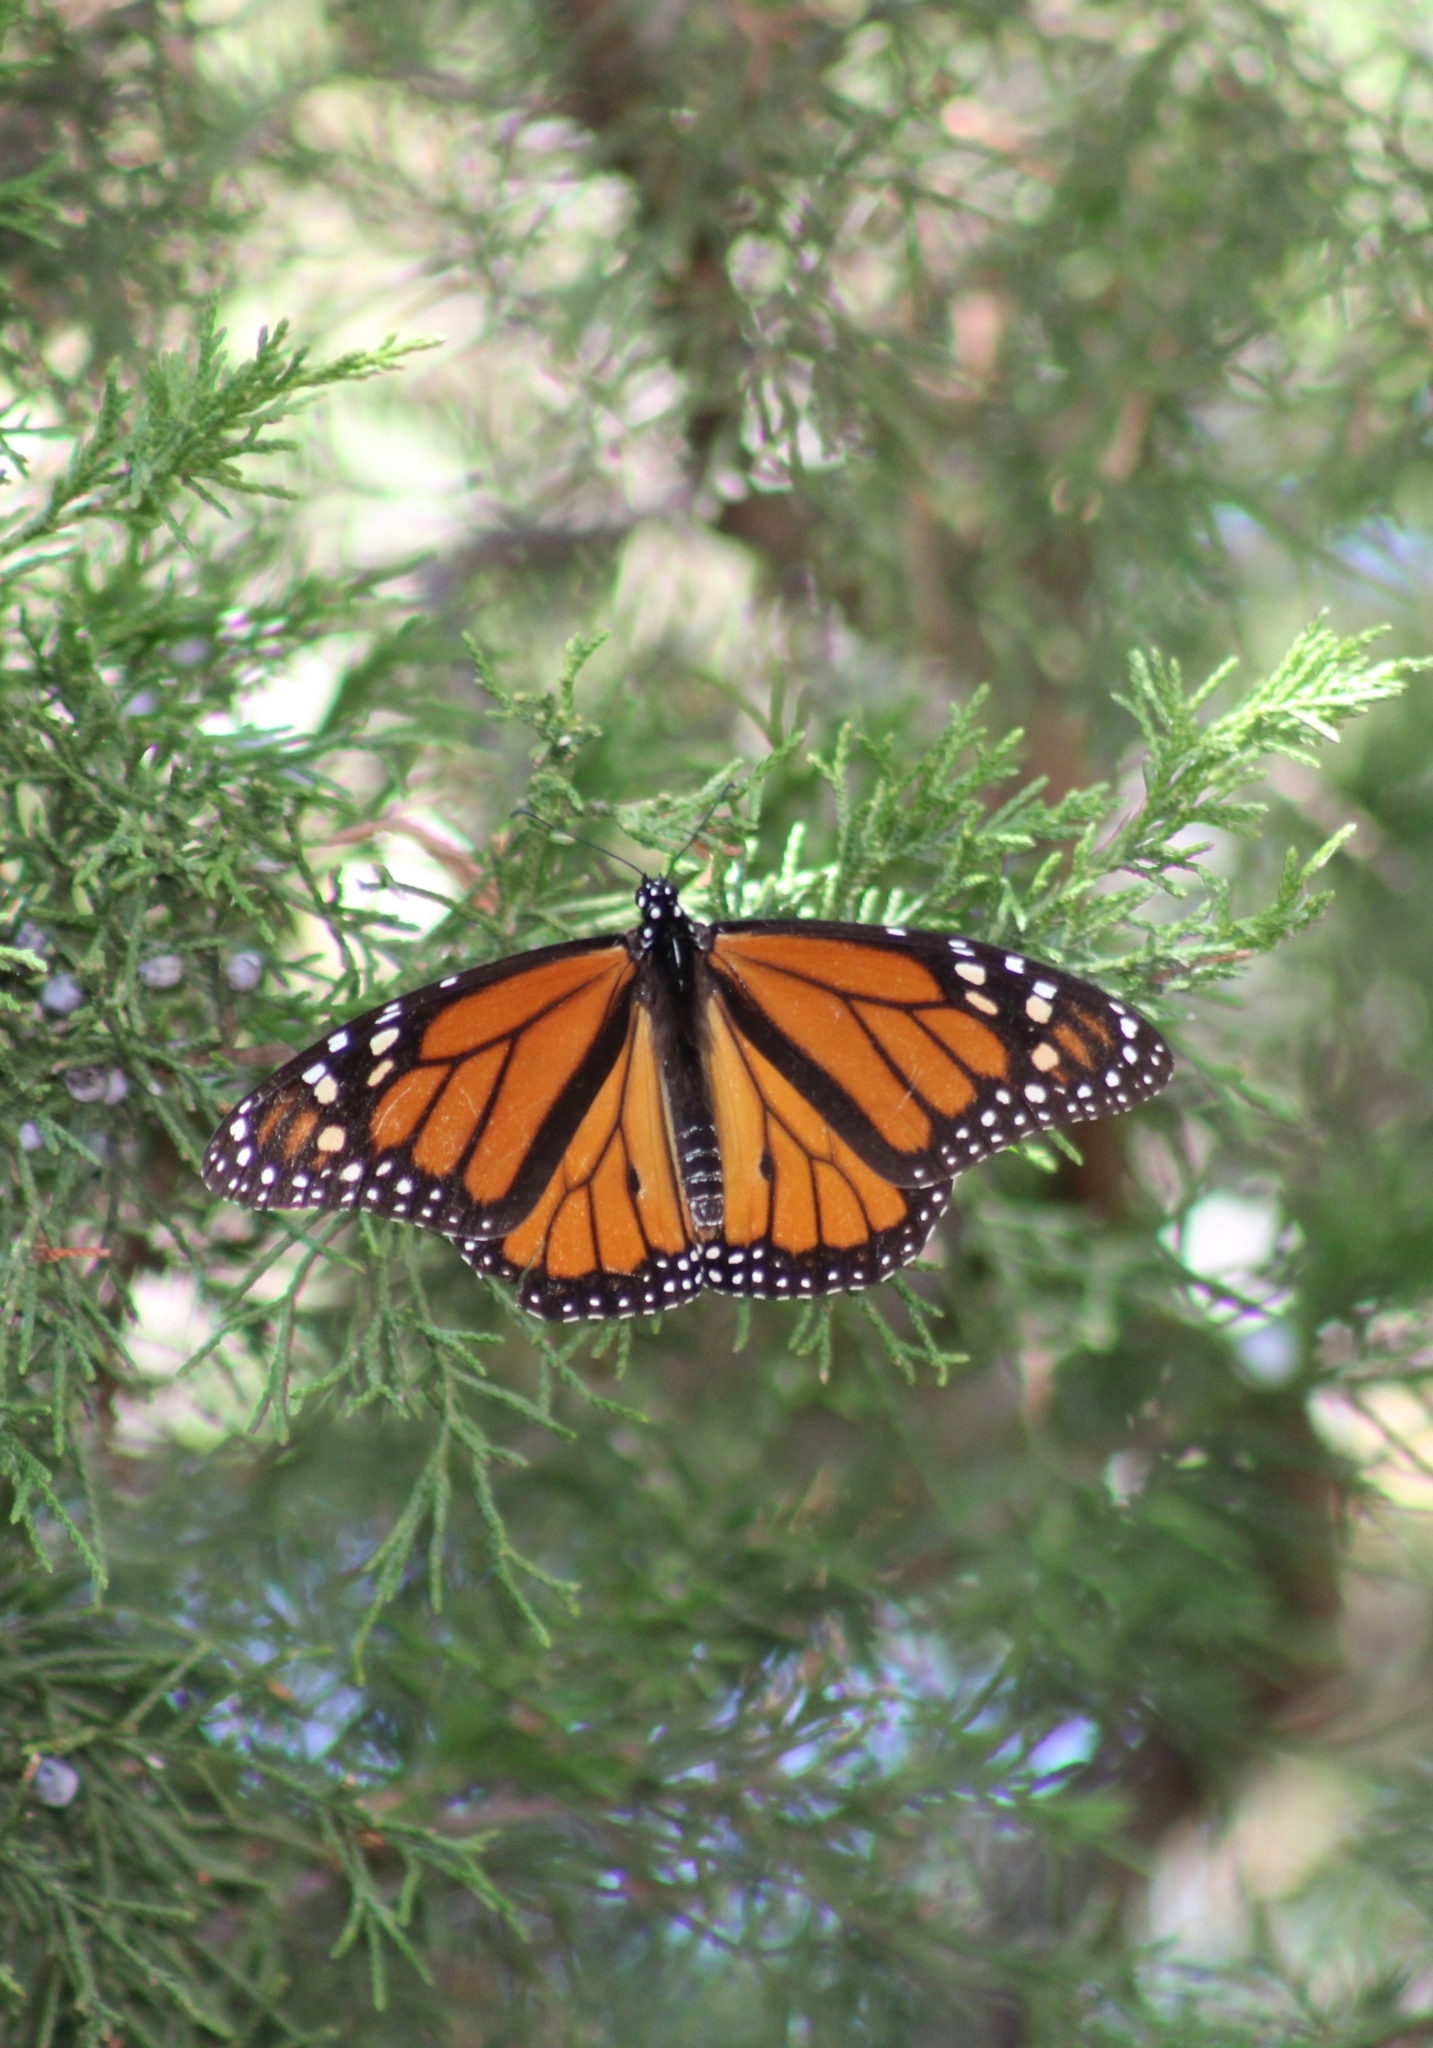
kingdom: Animalia
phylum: Arthropoda
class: Insecta
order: Lepidoptera
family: Nymphalidae
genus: Danaus
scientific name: Danaus plexippus
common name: Monarch
